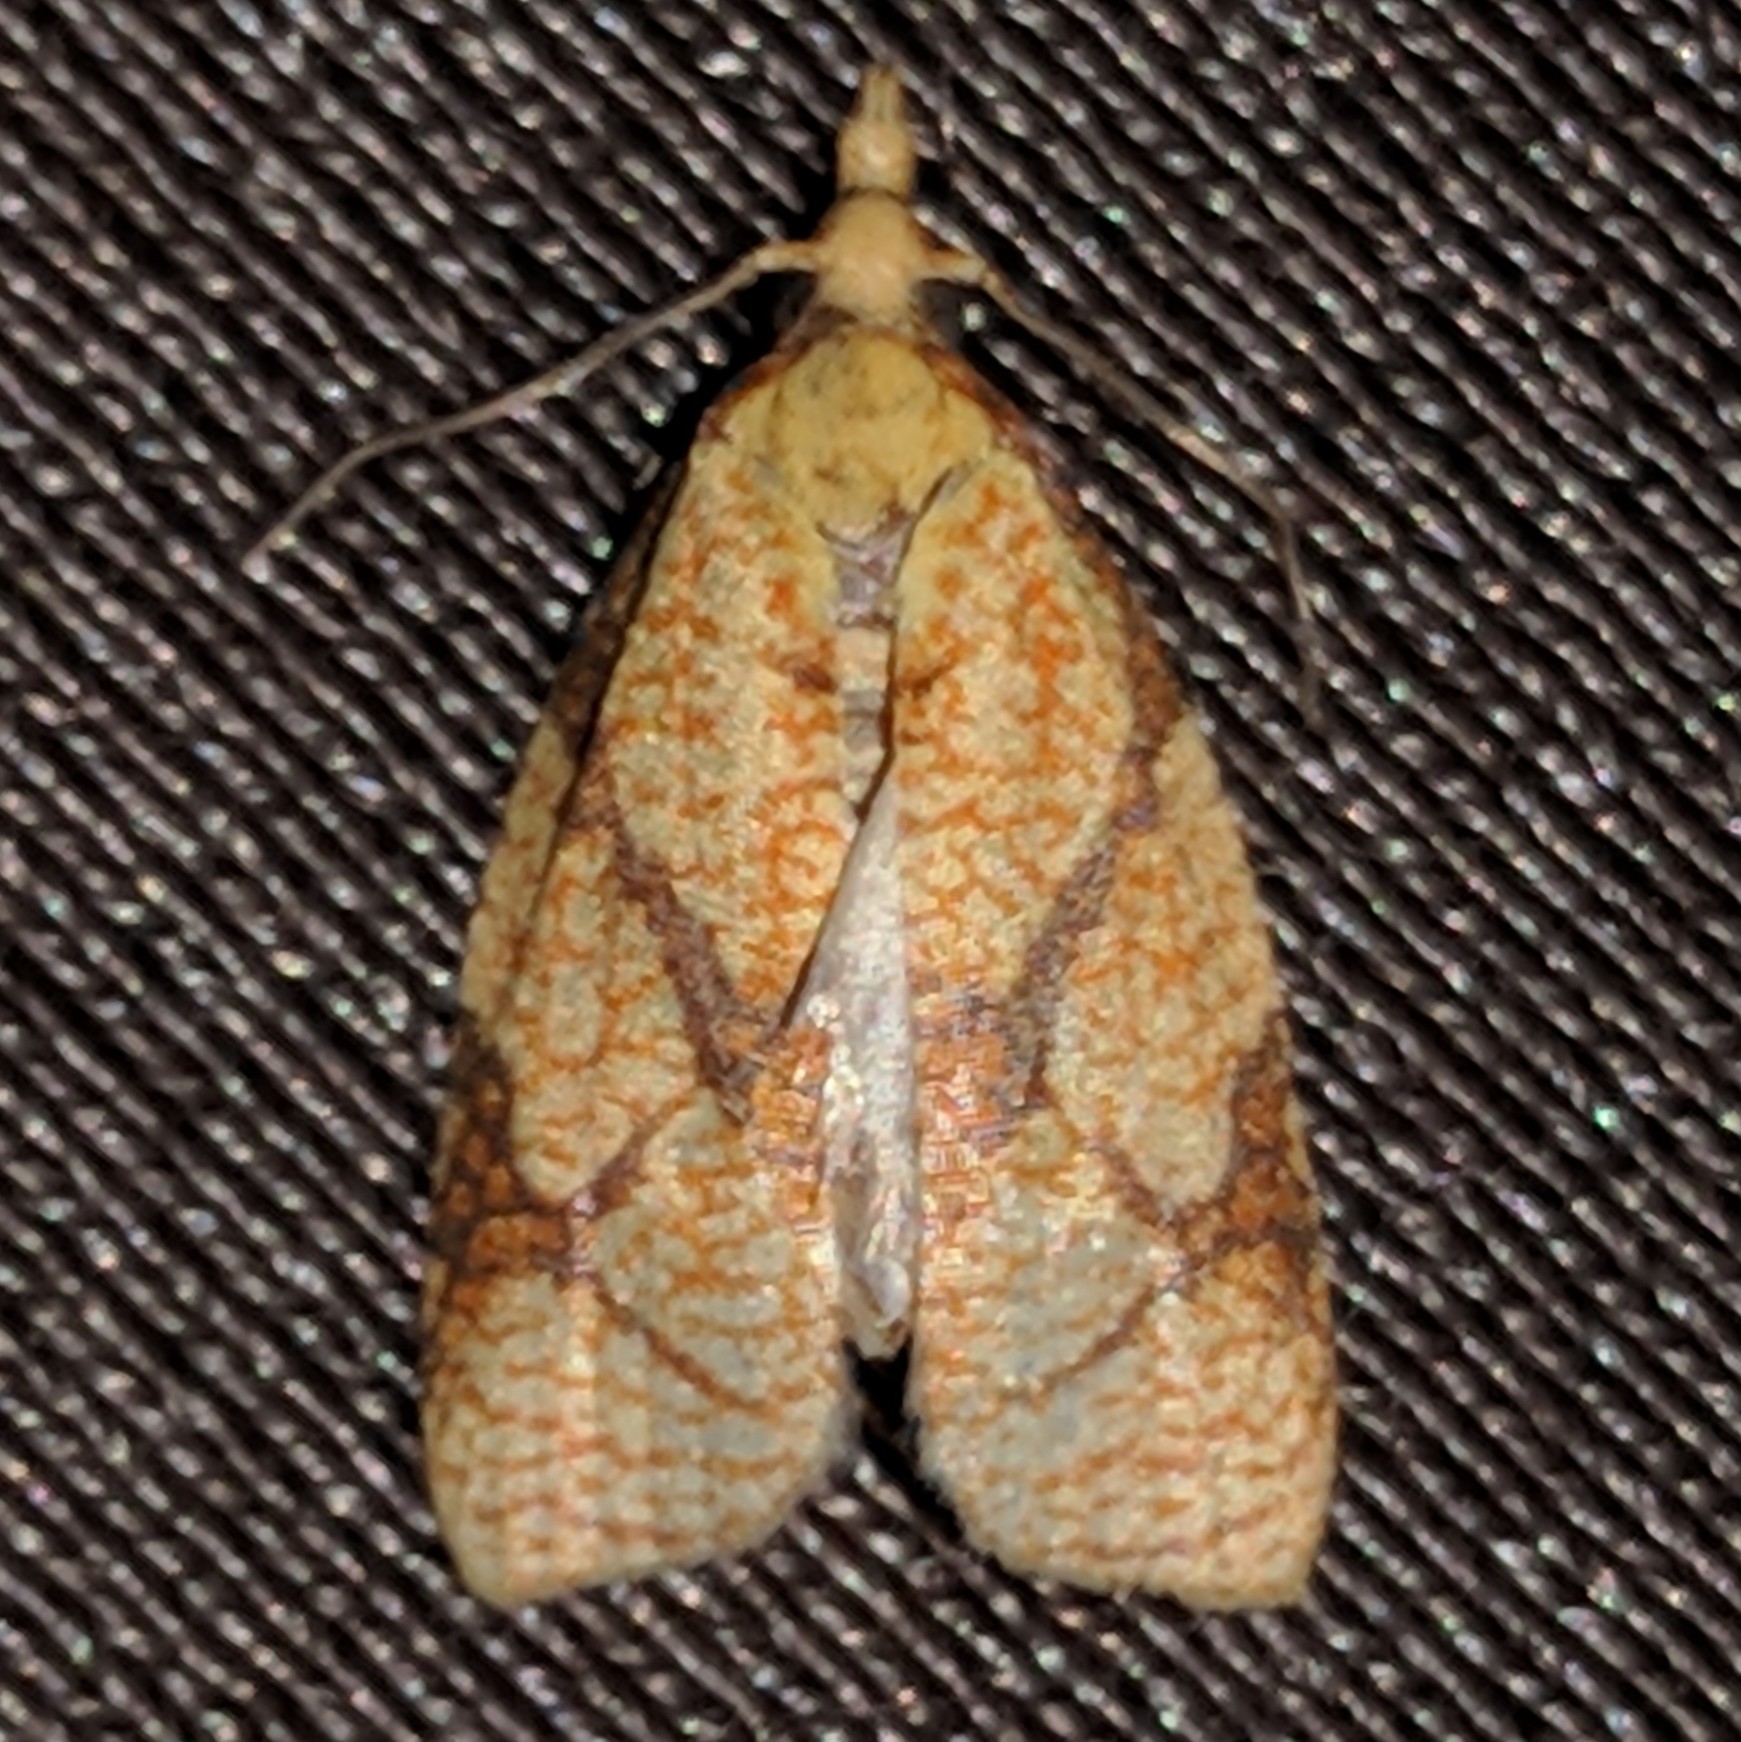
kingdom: Animalia
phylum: Arthropoda
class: Insecta
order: Lepidoptera
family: Tortricidae
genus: Cenopis
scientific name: Cenopis reticulatana
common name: Reticulated fruitworm moth
